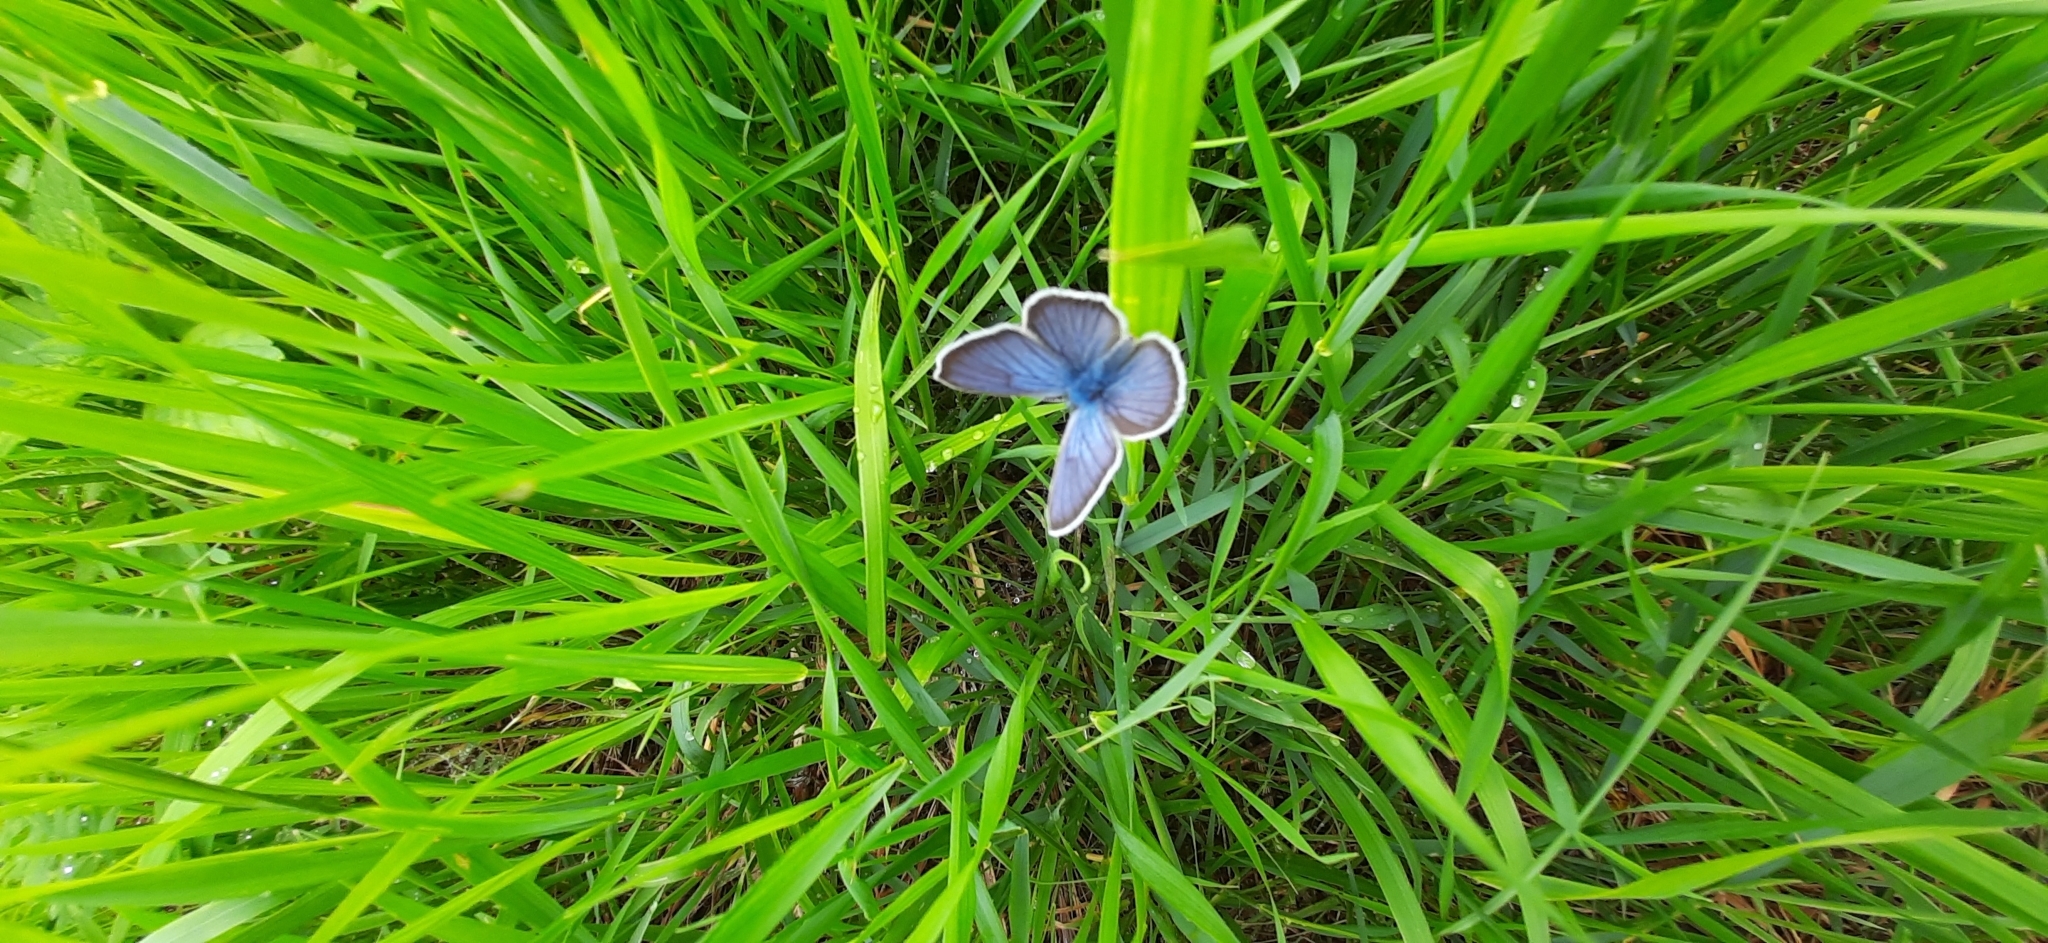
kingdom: Animalia
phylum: Arthropoda
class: Insecta
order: Lepidoptera
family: Lycaenidae
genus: Cyaniris
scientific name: Cyaniris semiargus
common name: Mazarine blue
